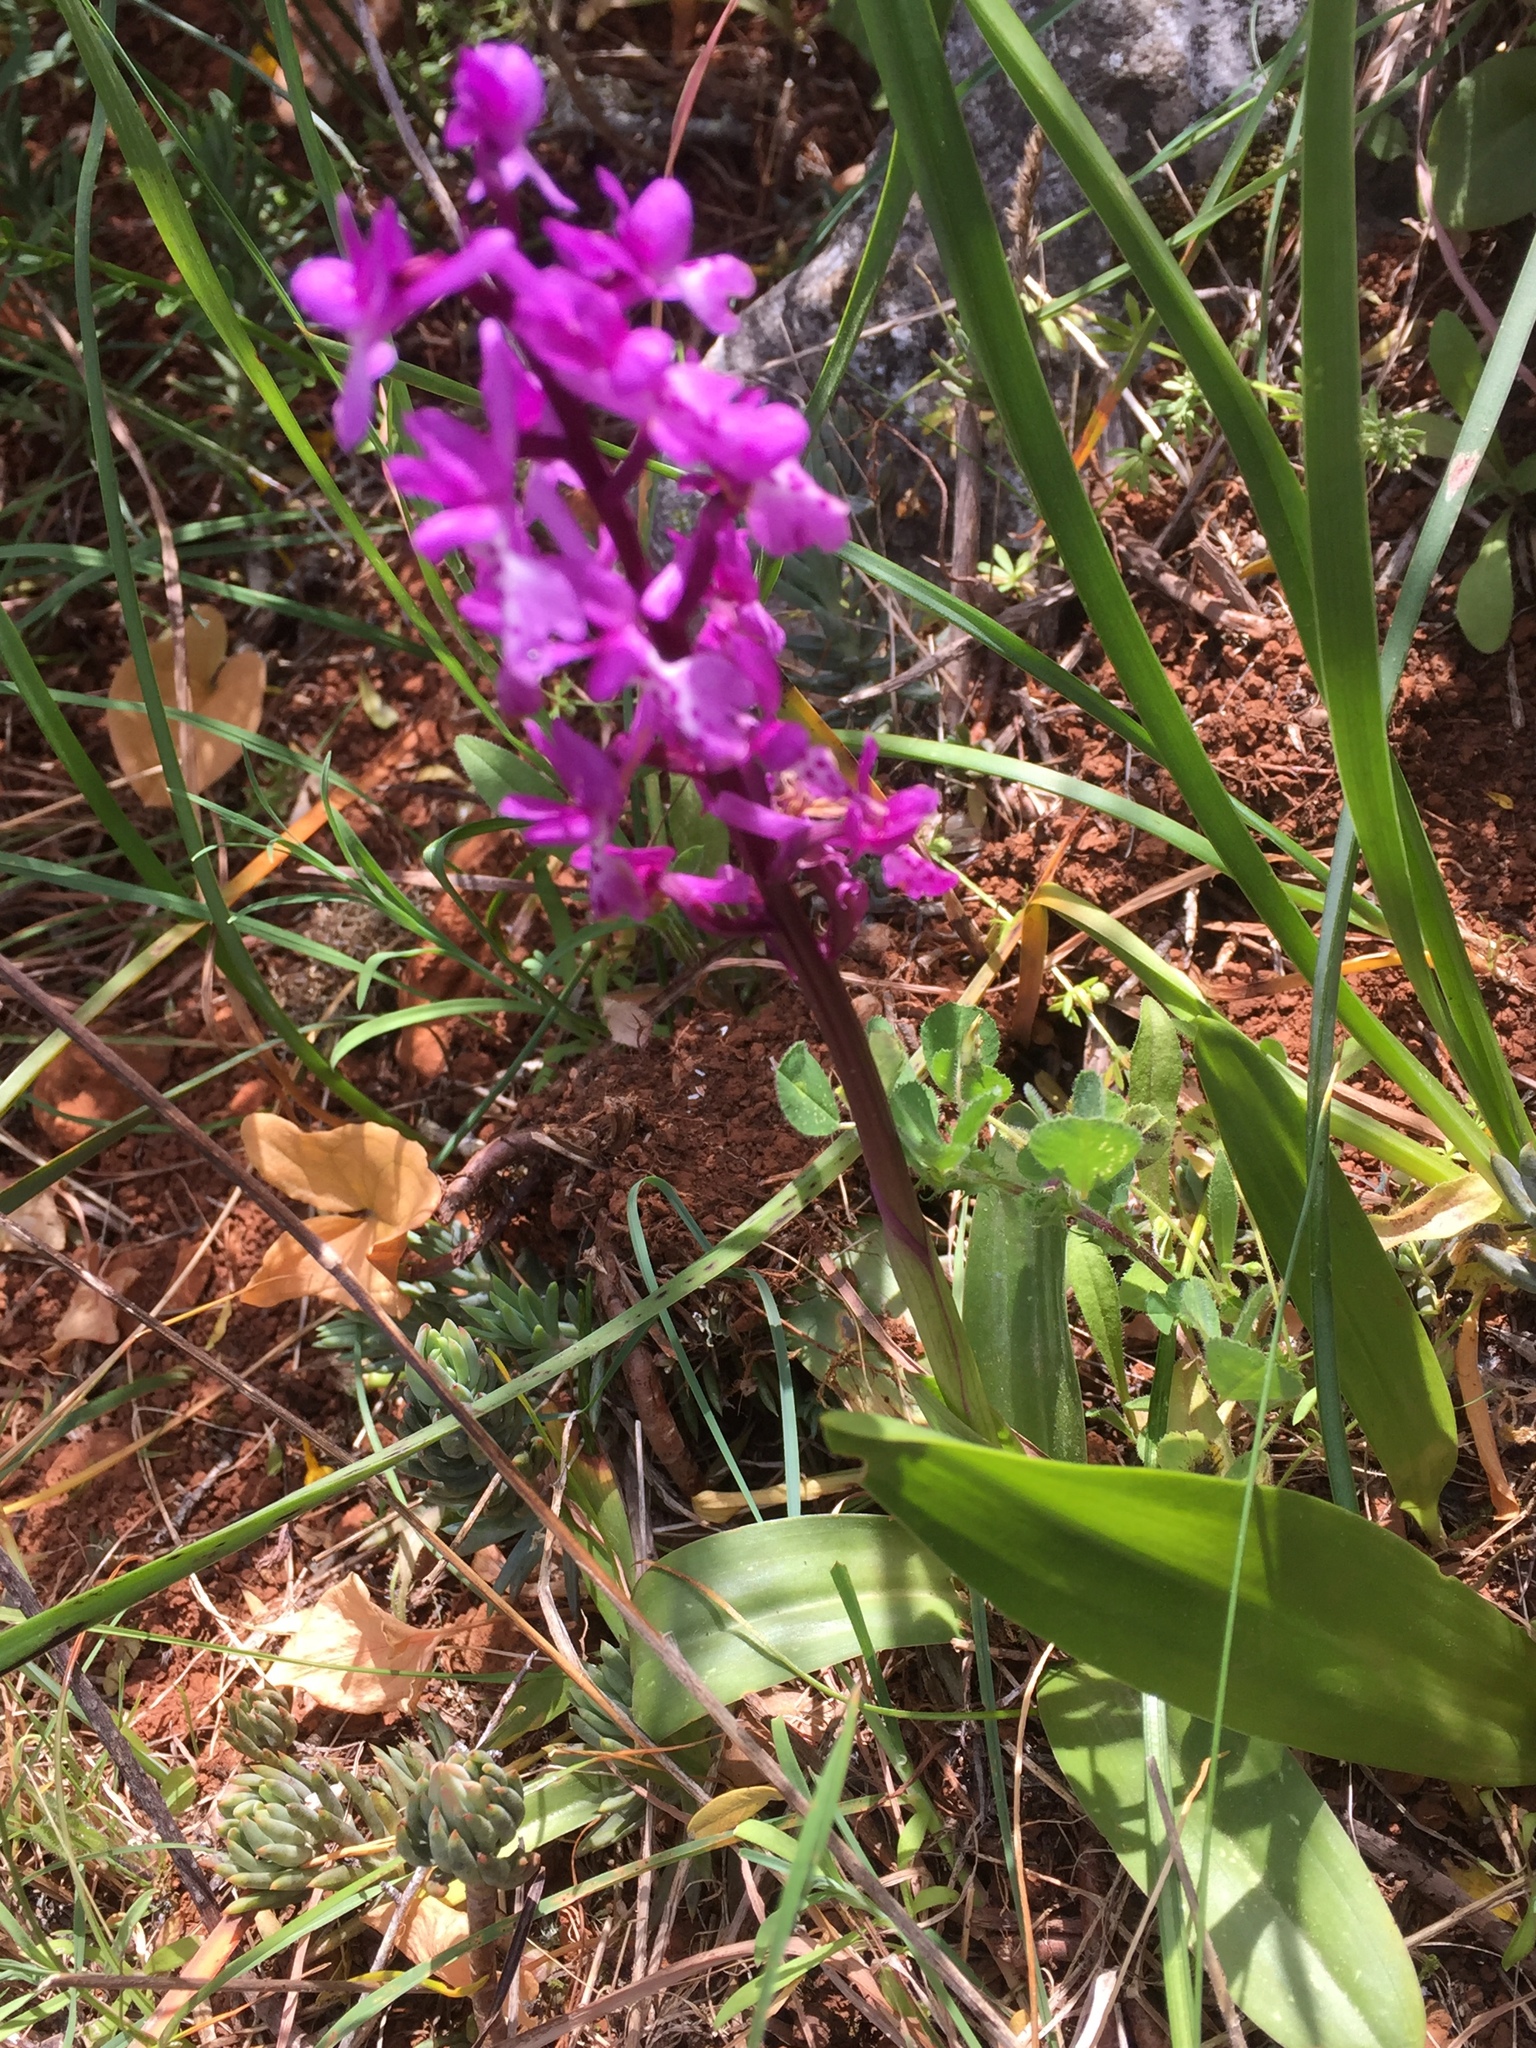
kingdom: Plantae
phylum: Tracheophyta
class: Liliopsida
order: Asparagales
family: Orchidaceae
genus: Orchis
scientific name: Orchis mascula
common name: Early-purple orchid
